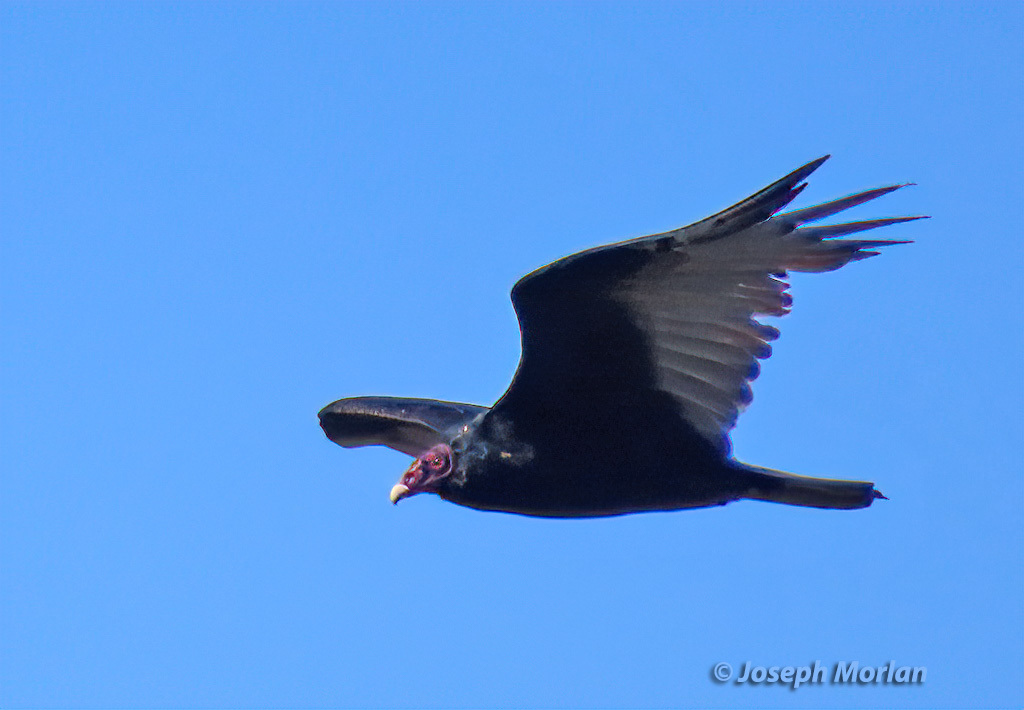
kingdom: Animalia
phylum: Chordata
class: Aves
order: Accipitriformes
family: Cathartidae
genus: Cathartes
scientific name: Cathartes aura
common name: Turkey vulture
